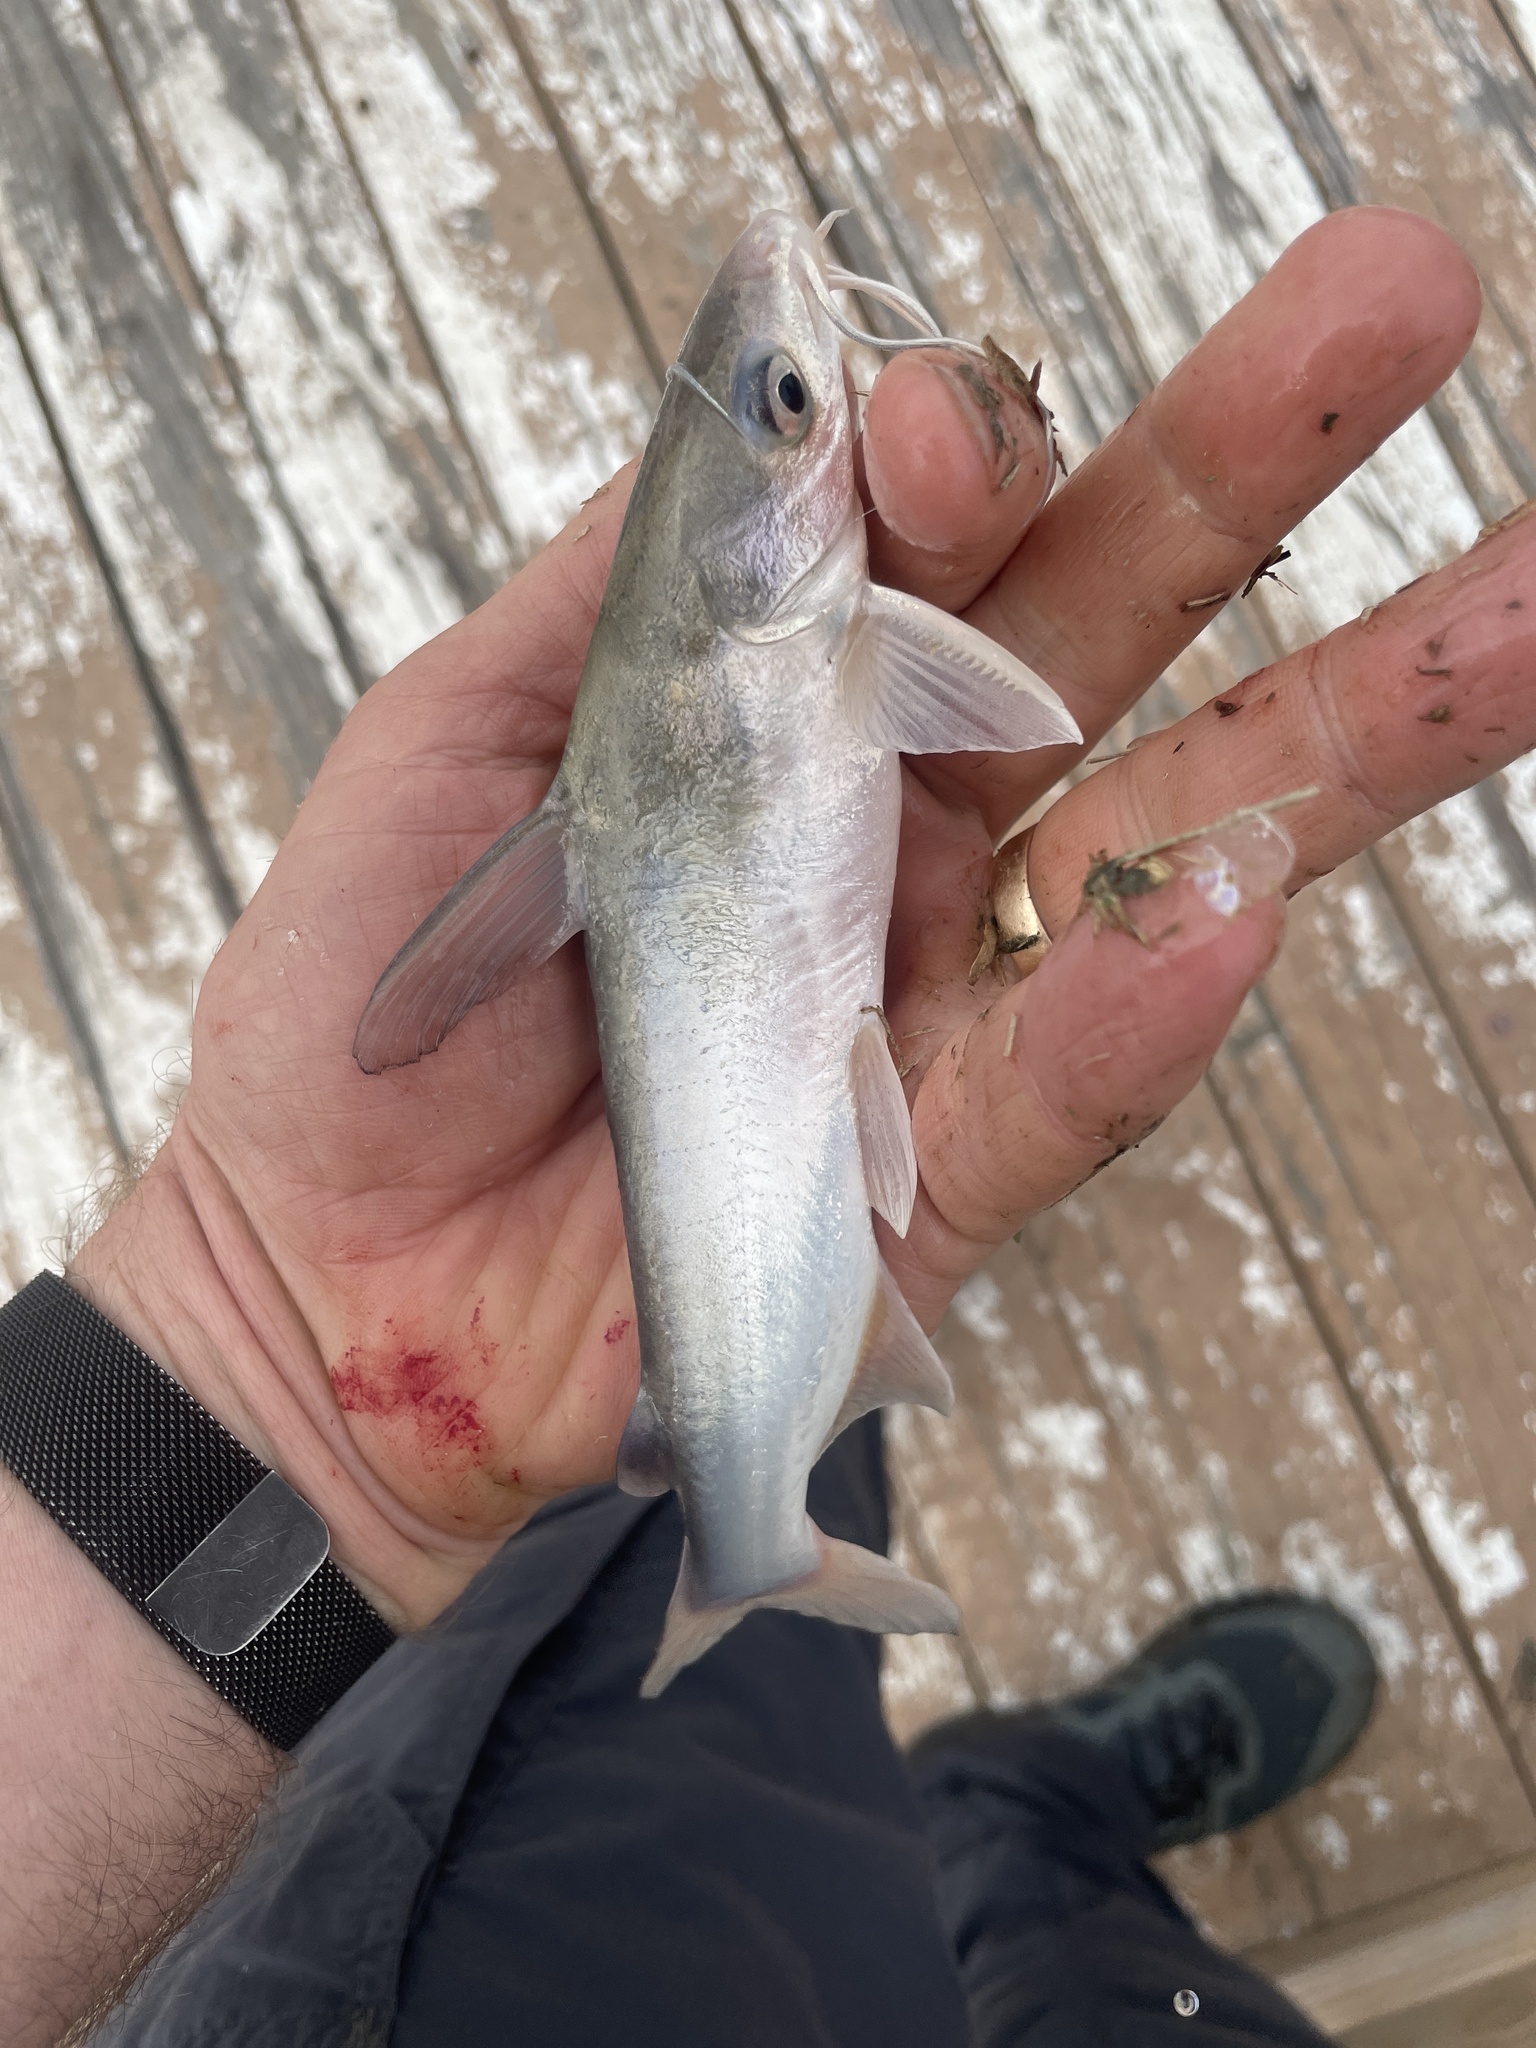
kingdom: Animalia
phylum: Chordata
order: Siluriformes
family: Ariidae
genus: Ariopsis
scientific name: Ariopsis felis
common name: Hardhead catfish
